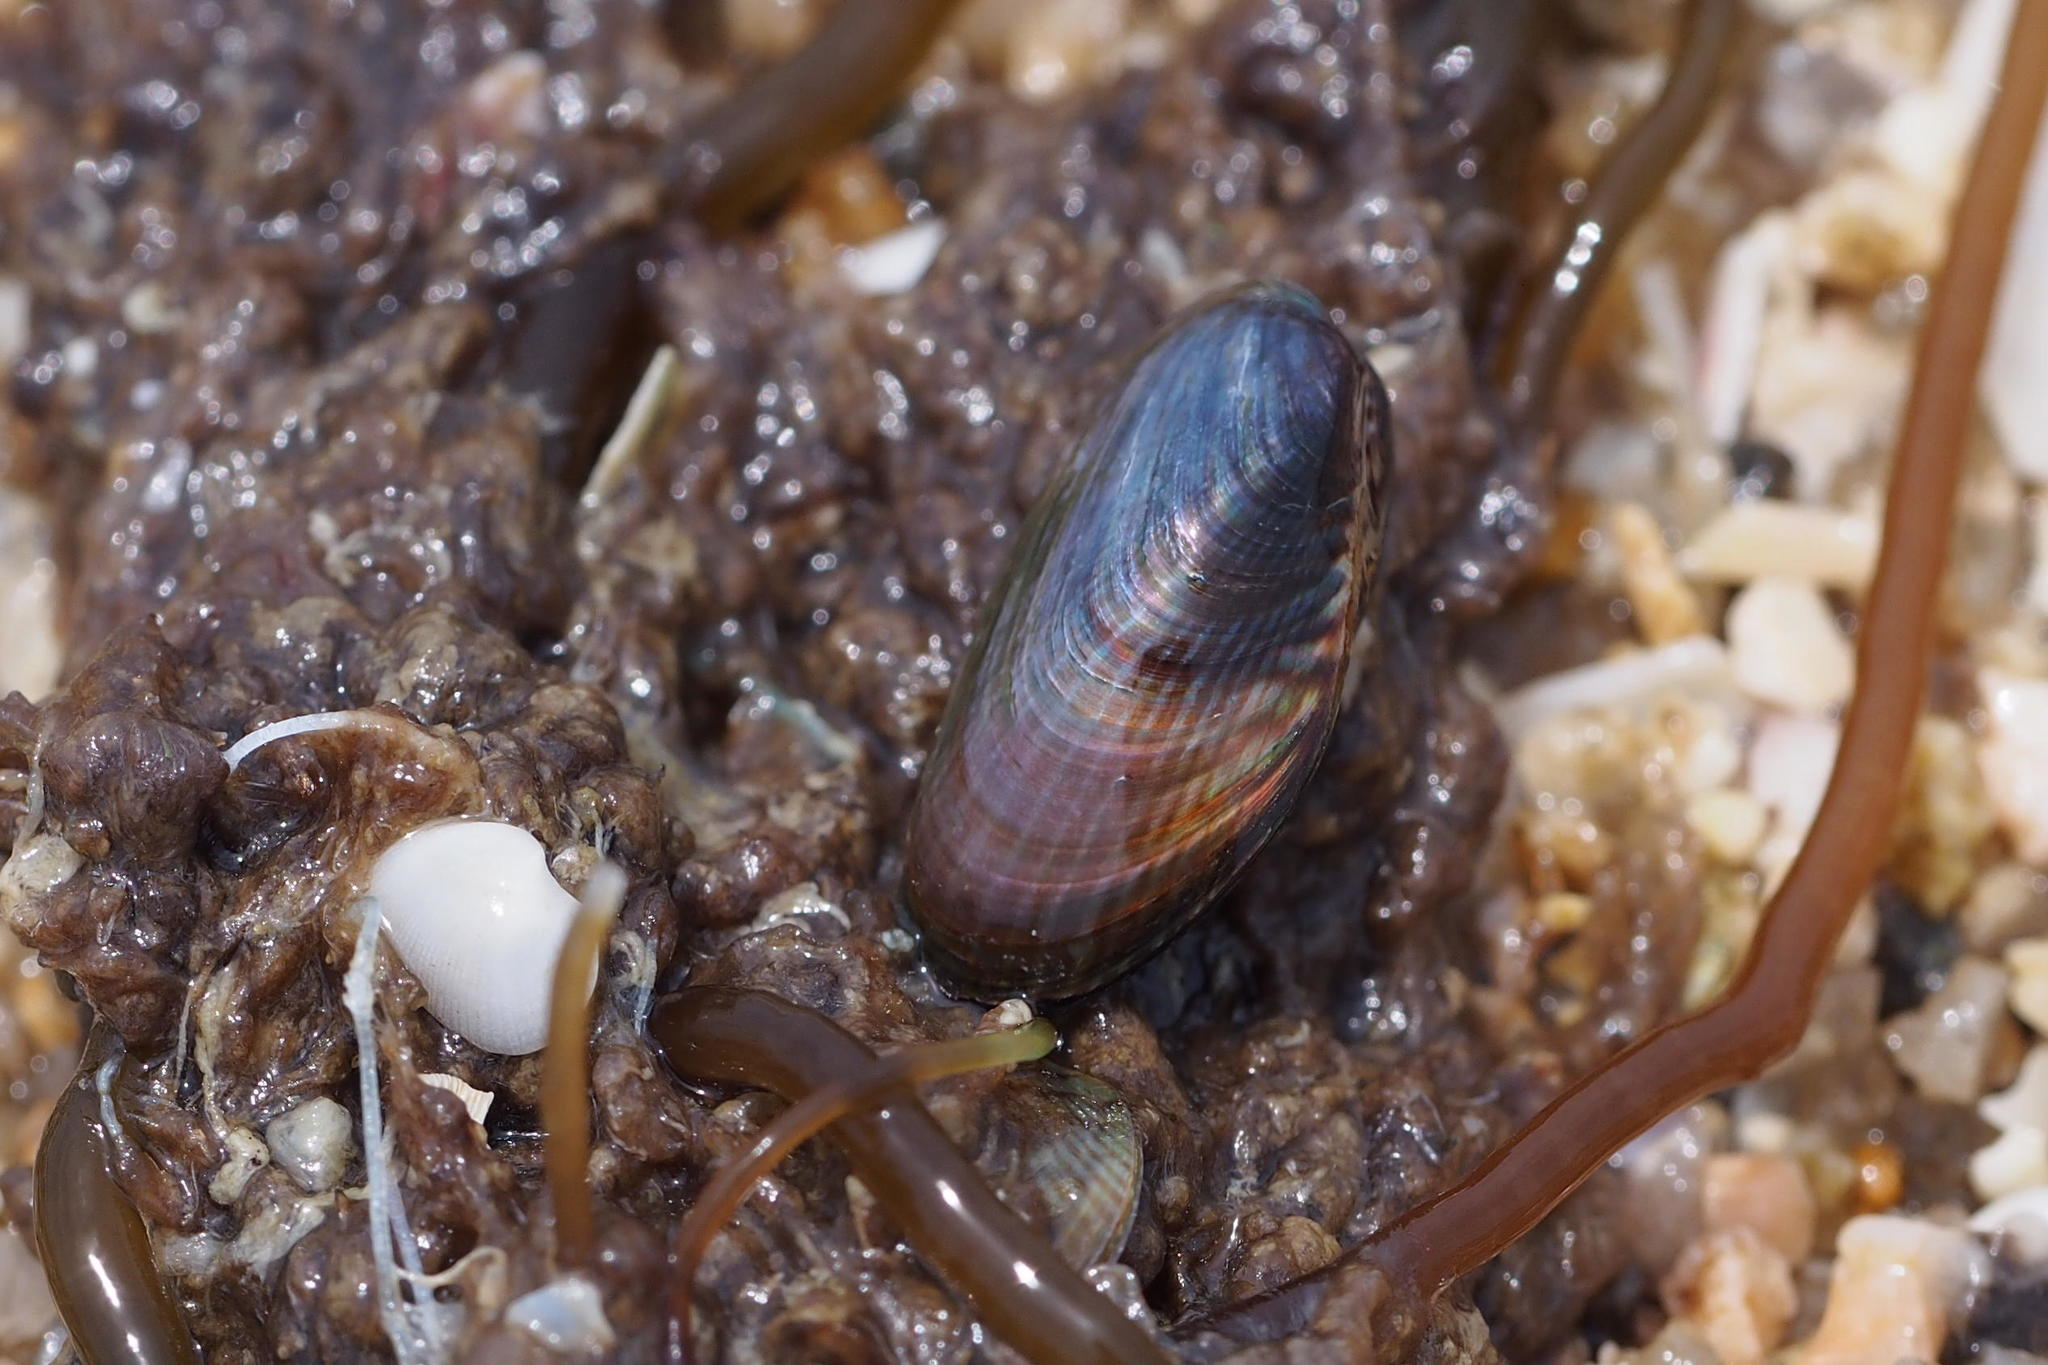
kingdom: Animalia
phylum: Mollusca
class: Bivalvia
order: Mytilida
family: Mytilidae
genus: Arcuatula
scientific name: Arcuatula senhousia
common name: Asian mussel
